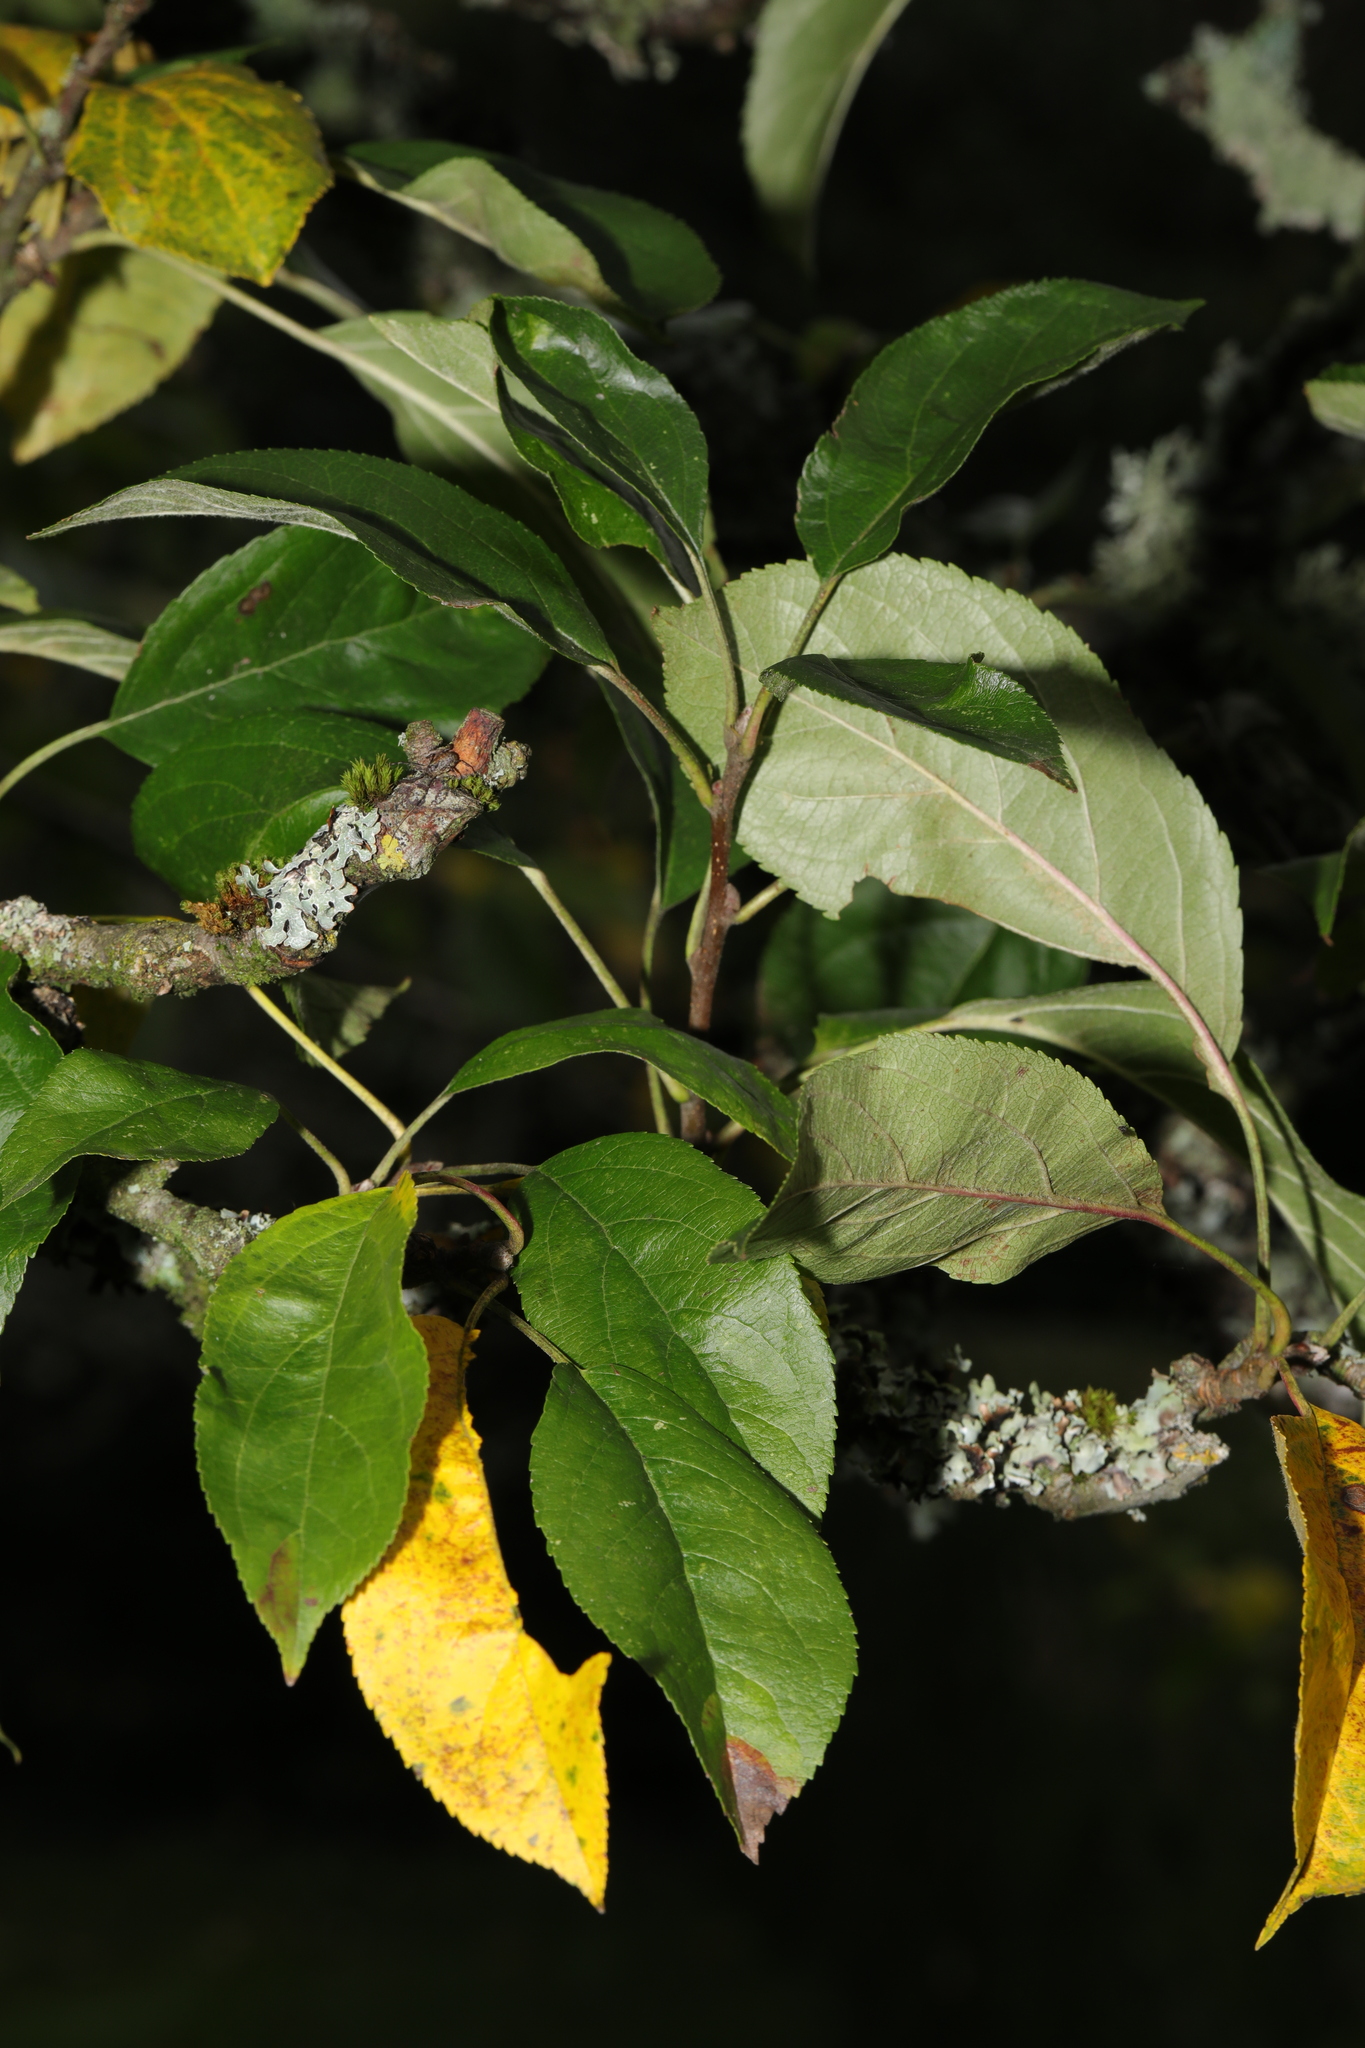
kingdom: Plantae
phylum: Tracheophyta
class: Magnoliopsida
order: Rosales
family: Rosaceae
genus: Malus
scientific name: Malus domestica
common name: Apple
